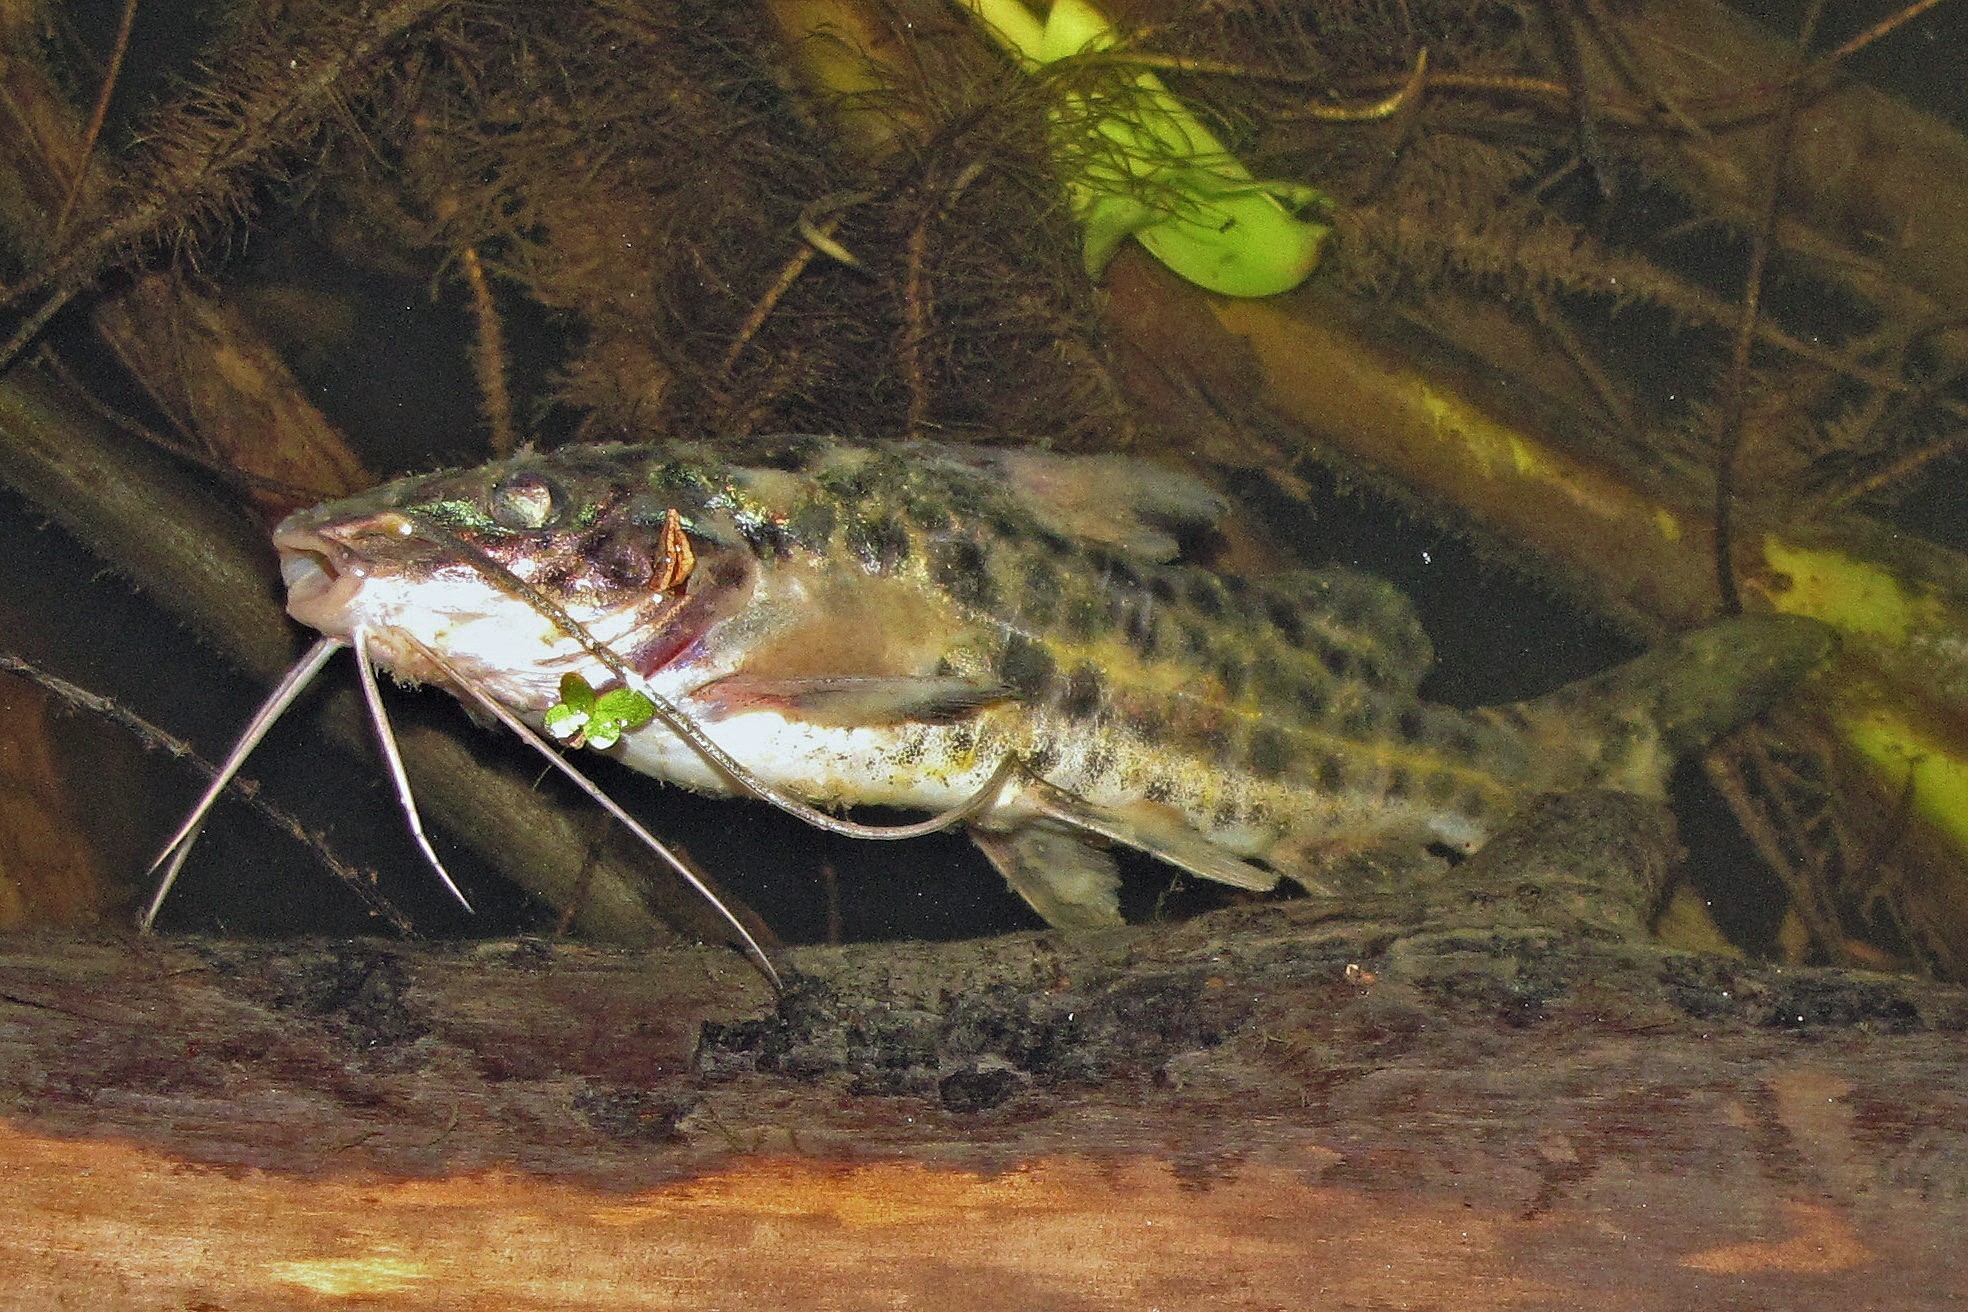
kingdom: Animalia
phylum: Chordata
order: Siluriformes
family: Pimelodidae
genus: Pimelodus
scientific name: Pimelodus maculatus
